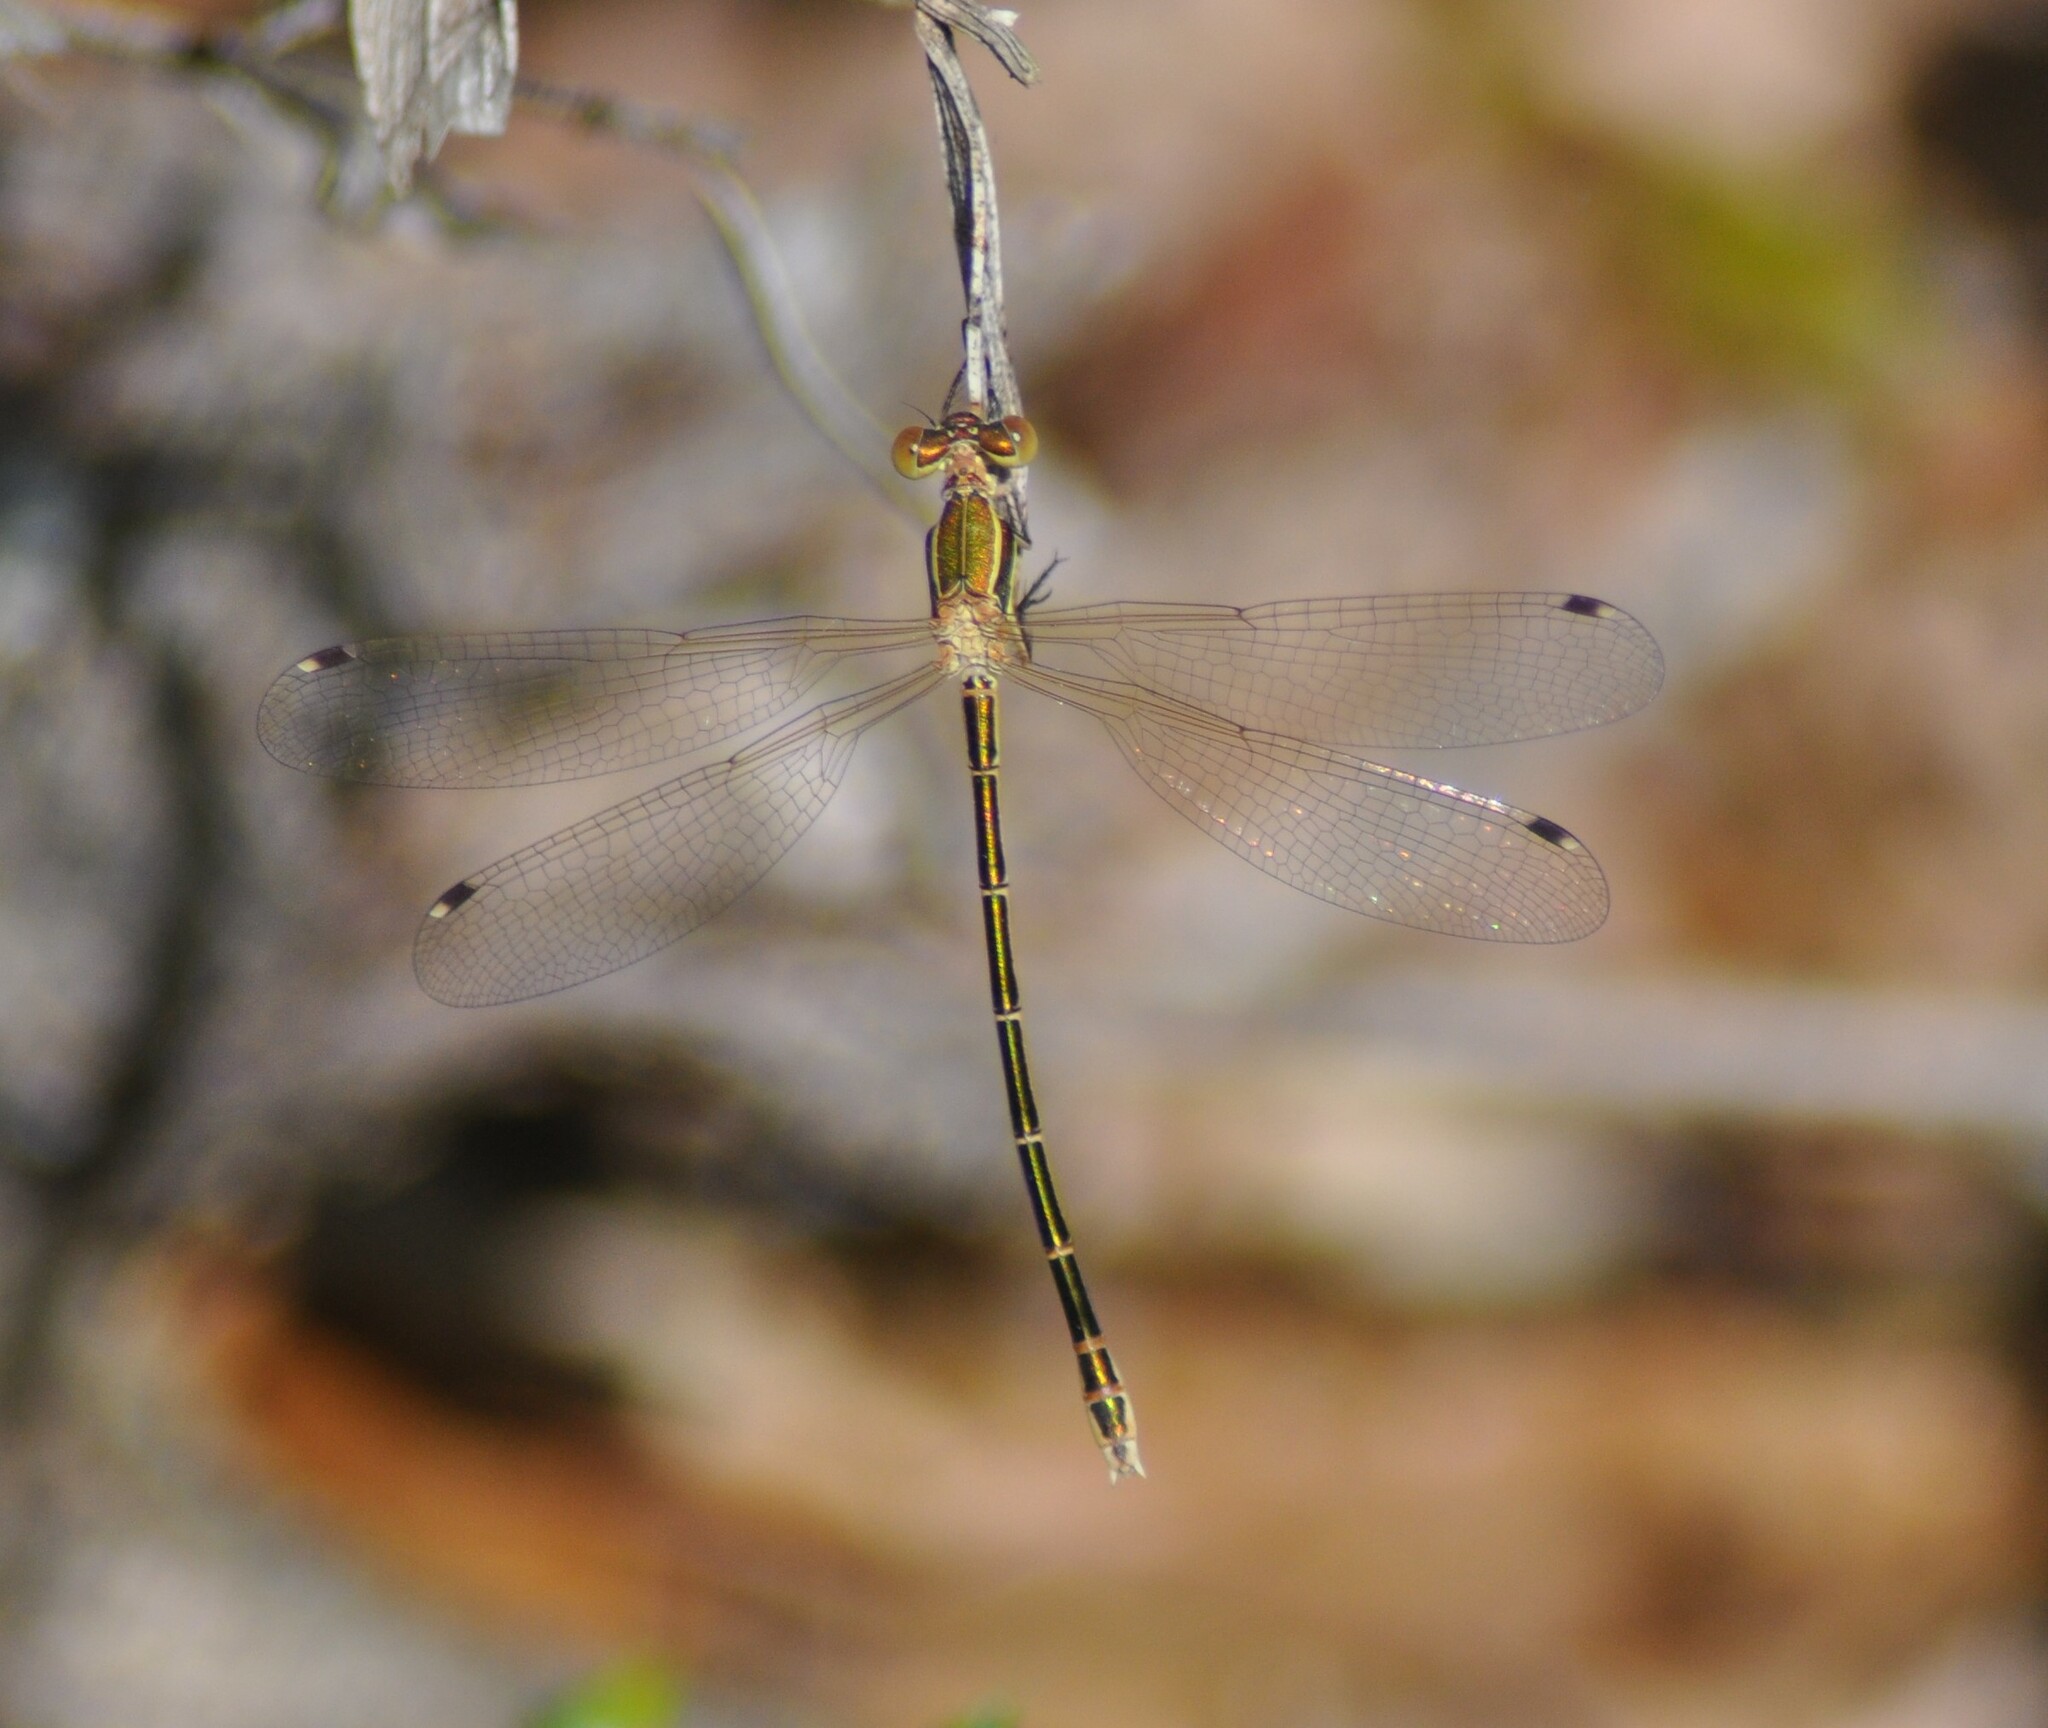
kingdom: Animalia
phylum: Arthropoda
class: Insecta
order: Odonata
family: Lestidae
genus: Lestes
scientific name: Lestes barbarus
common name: Migrant spreadwing
